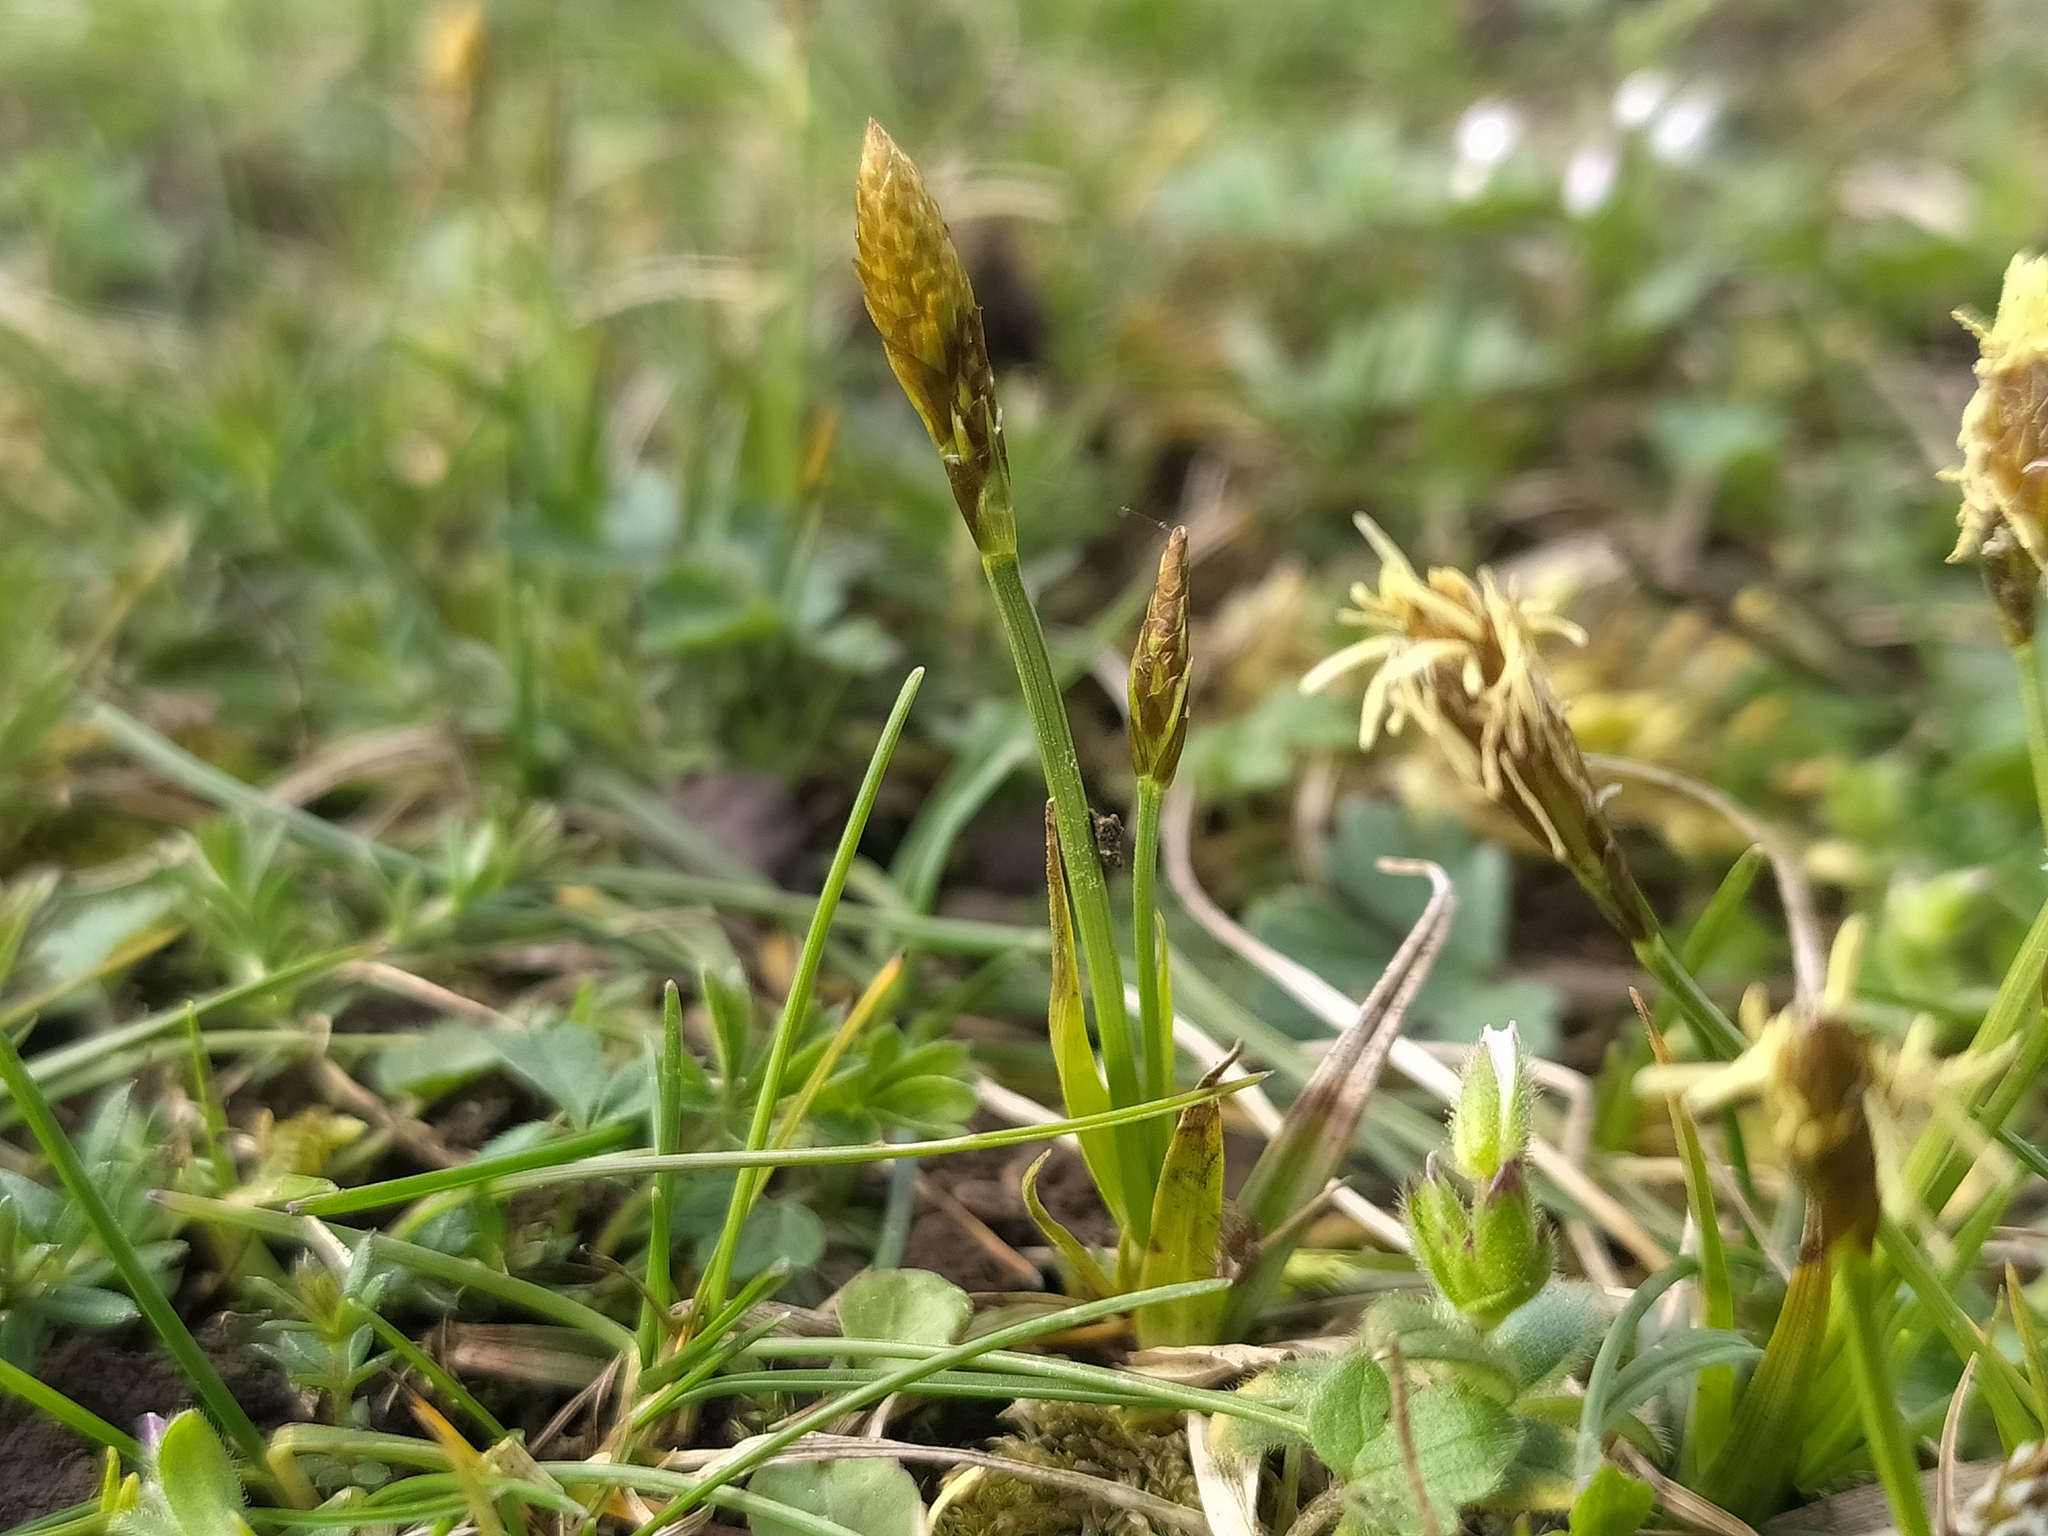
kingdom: Plantae
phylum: Tracheophyta
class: Liliopsida
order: Poales
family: Cyperaceae
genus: Carex
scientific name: Carex caryophyllea
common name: Spring sedge
